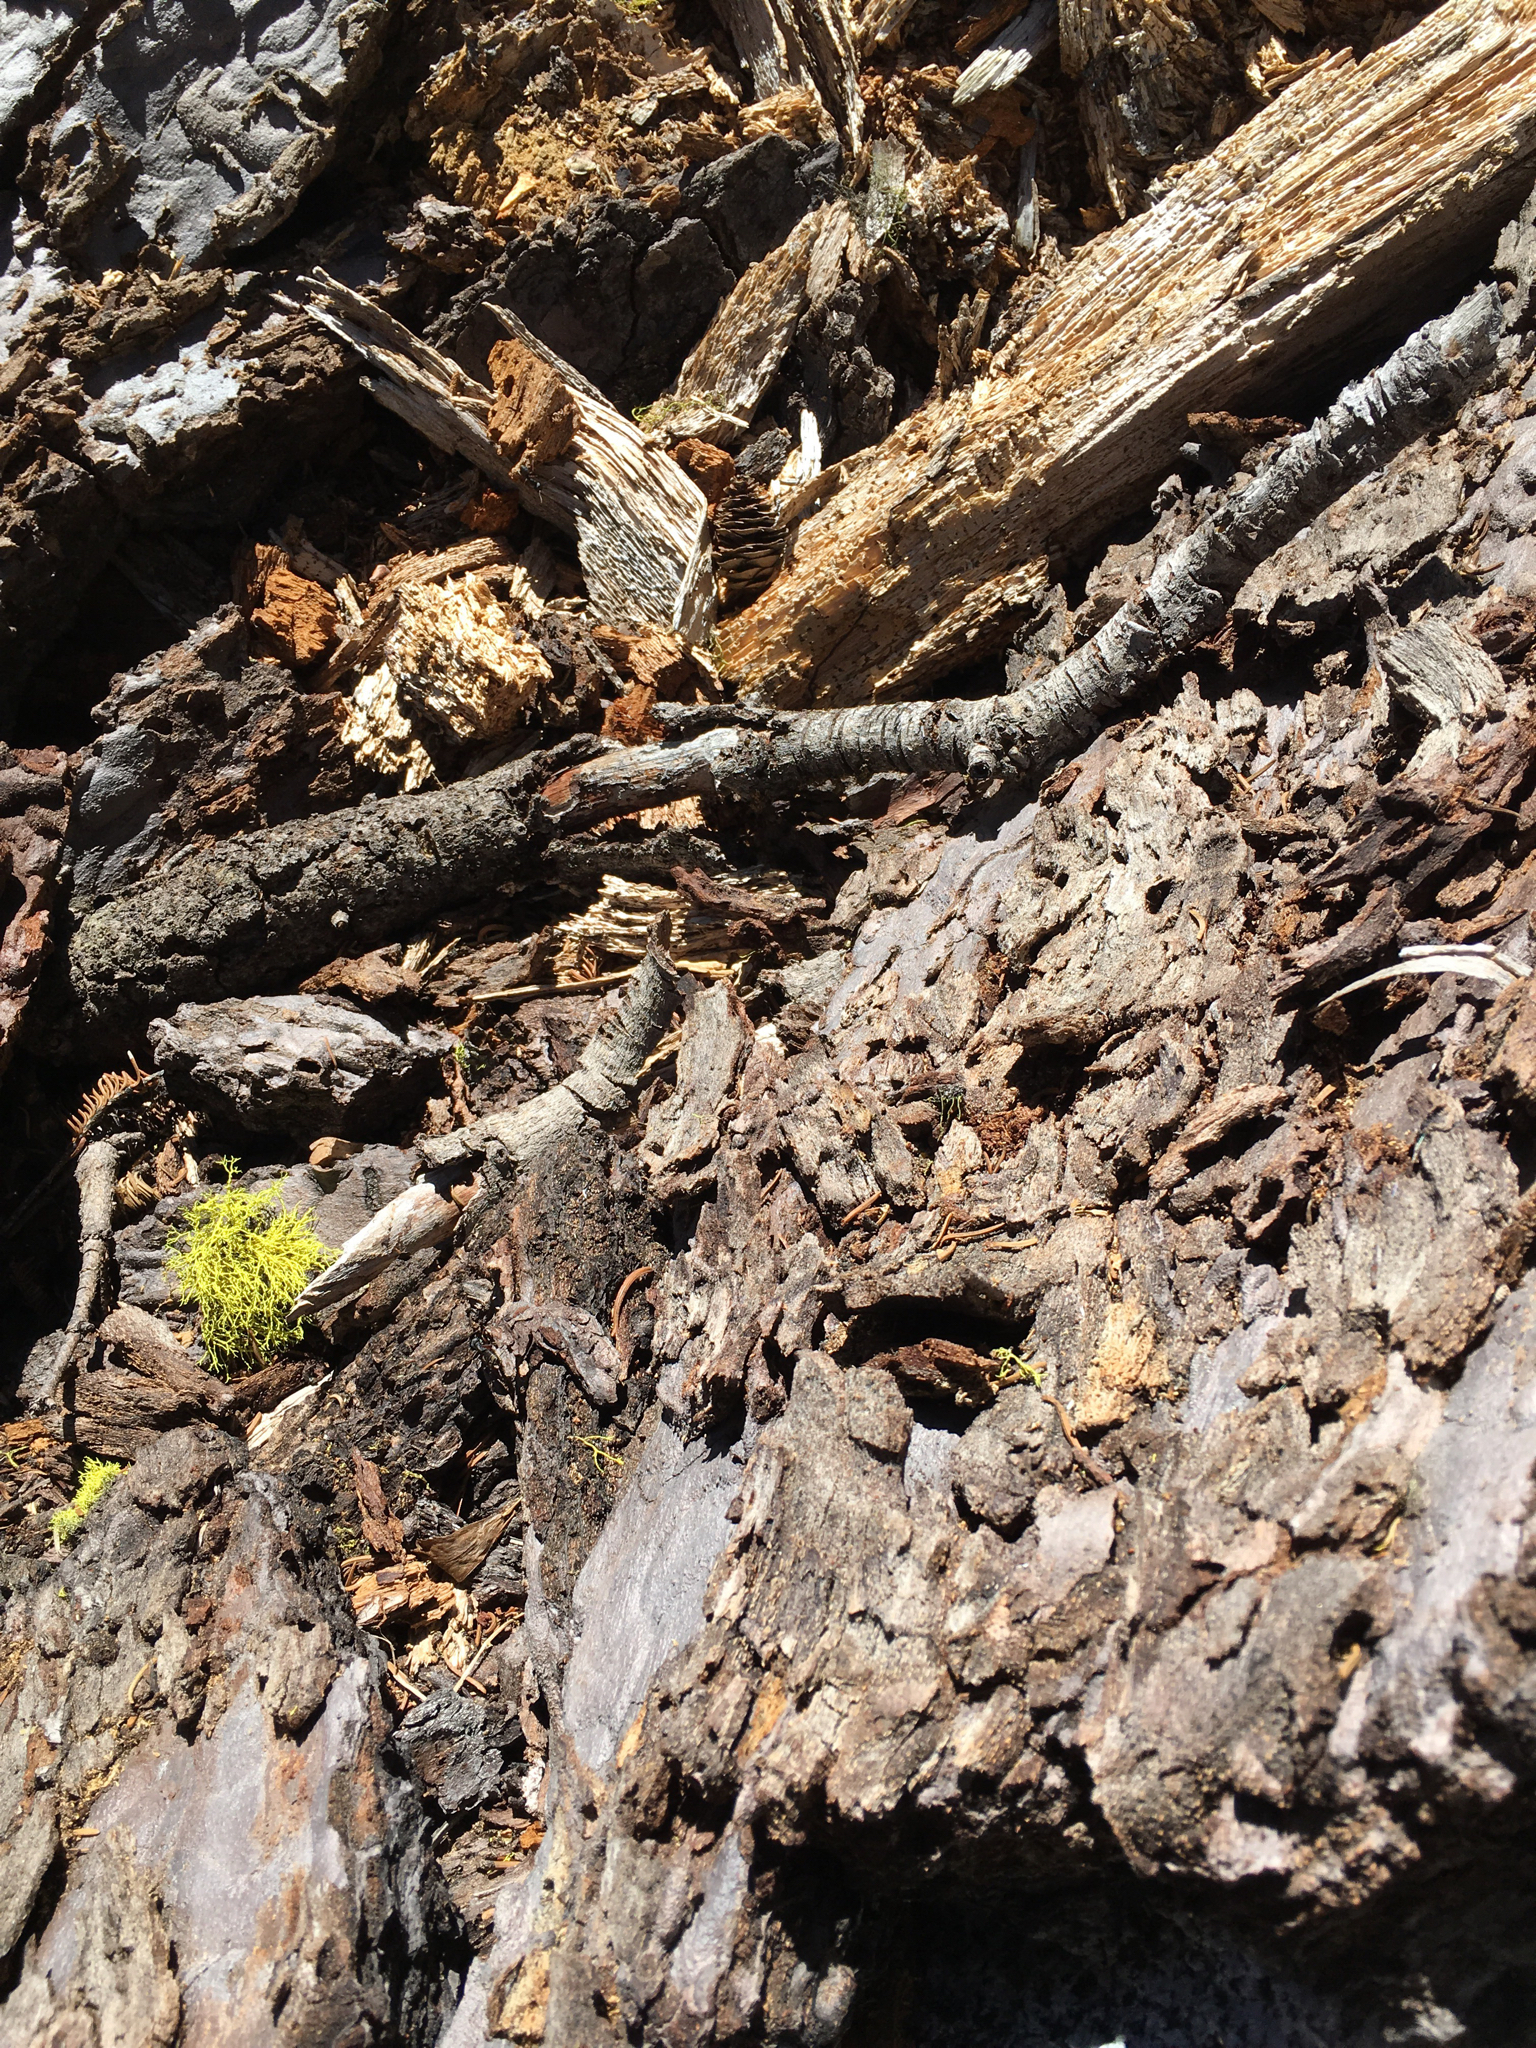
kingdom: Animalia
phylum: Arthropoda
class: Insecta
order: Hymenoptera
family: Formicidae
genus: Camponotus
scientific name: Camponotus modoc
